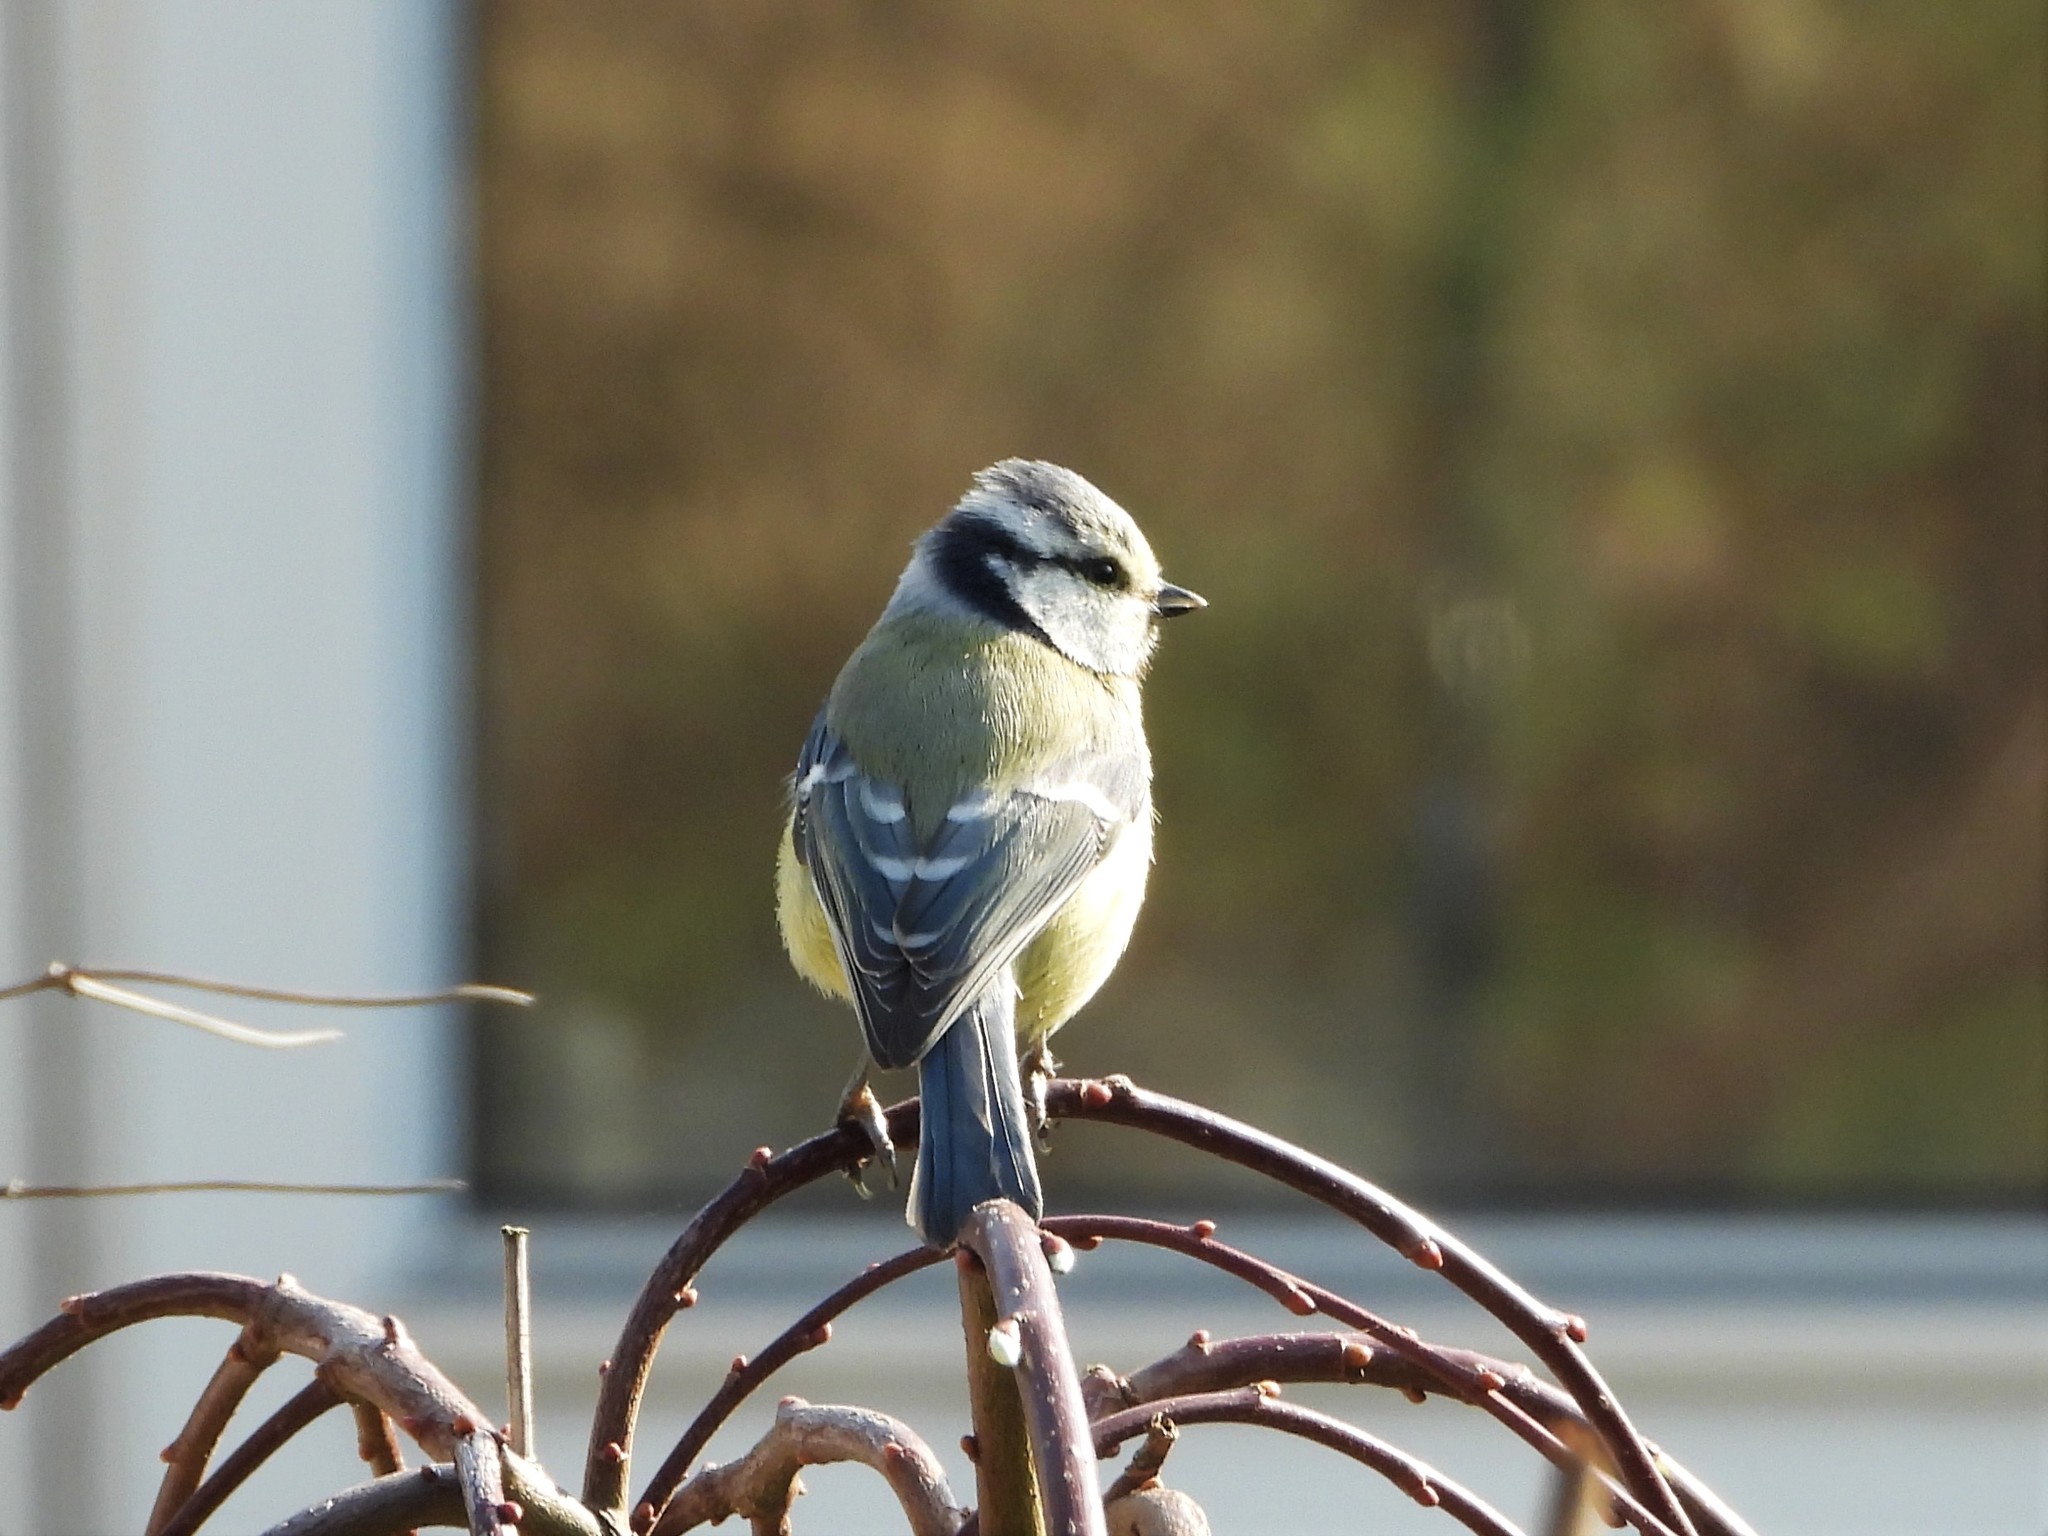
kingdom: Animalia
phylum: Chordata
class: Aves
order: Passeriformes
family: Paridae
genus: Cyanistes
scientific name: Cyanistes caeruleus
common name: Eurasian blue tit
